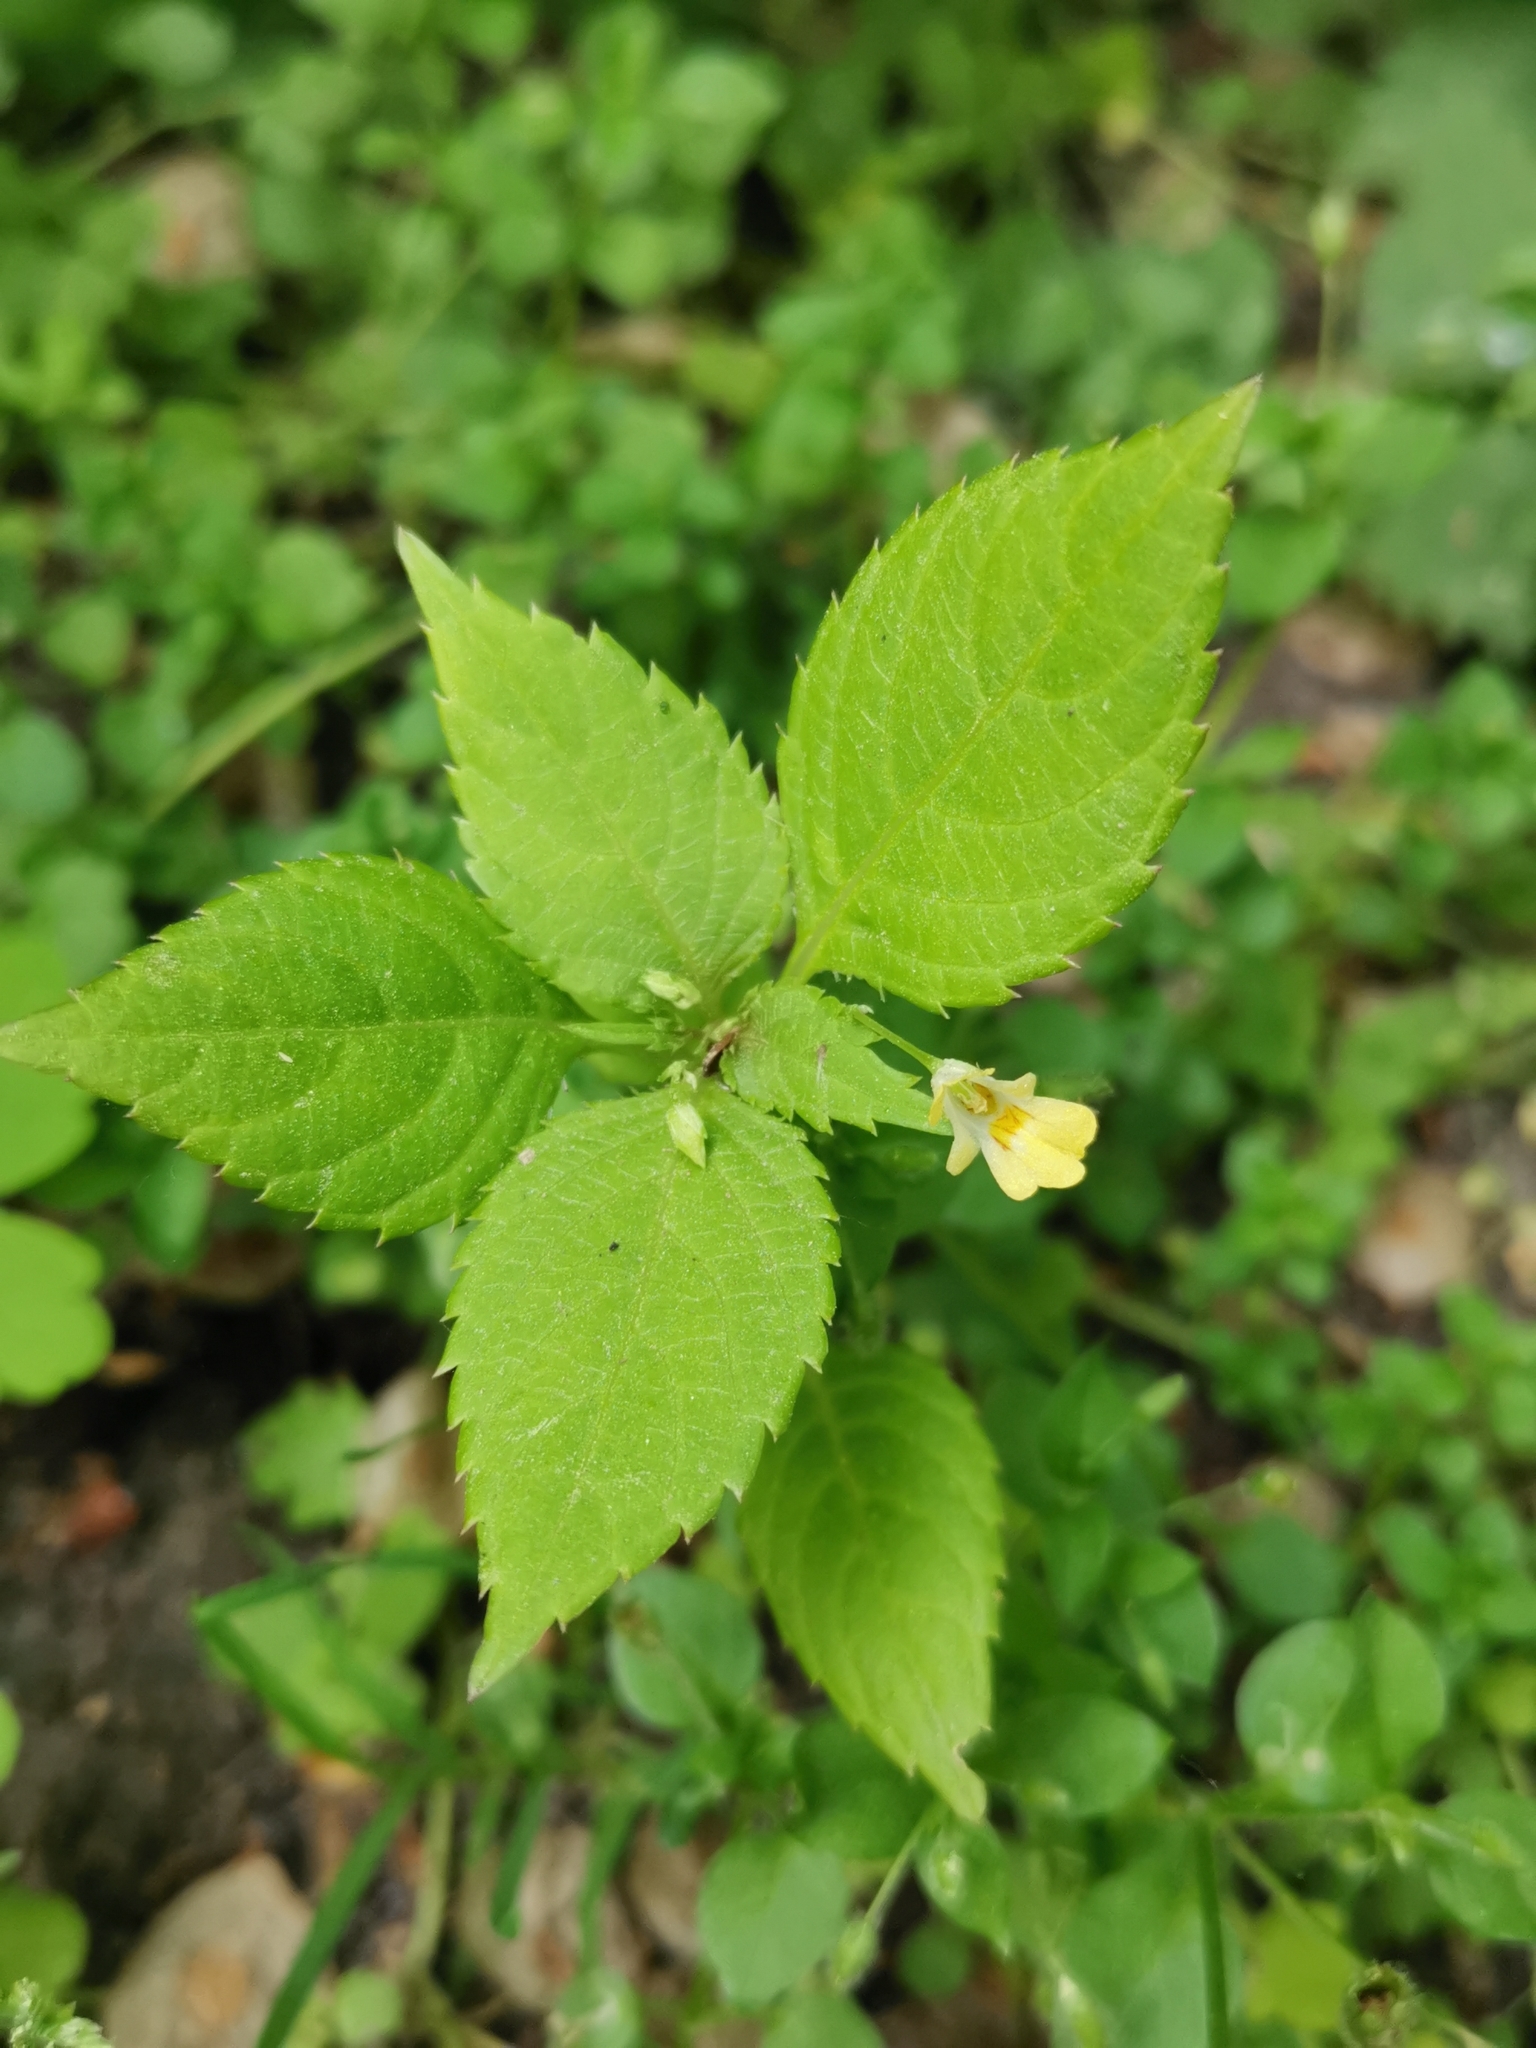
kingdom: Plantae
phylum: Tracheophyta
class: Magnoliopsida
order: Ericales
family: Balsaminaceae
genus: Impatiens
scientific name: Impatiens parviflora
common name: Small balsam
